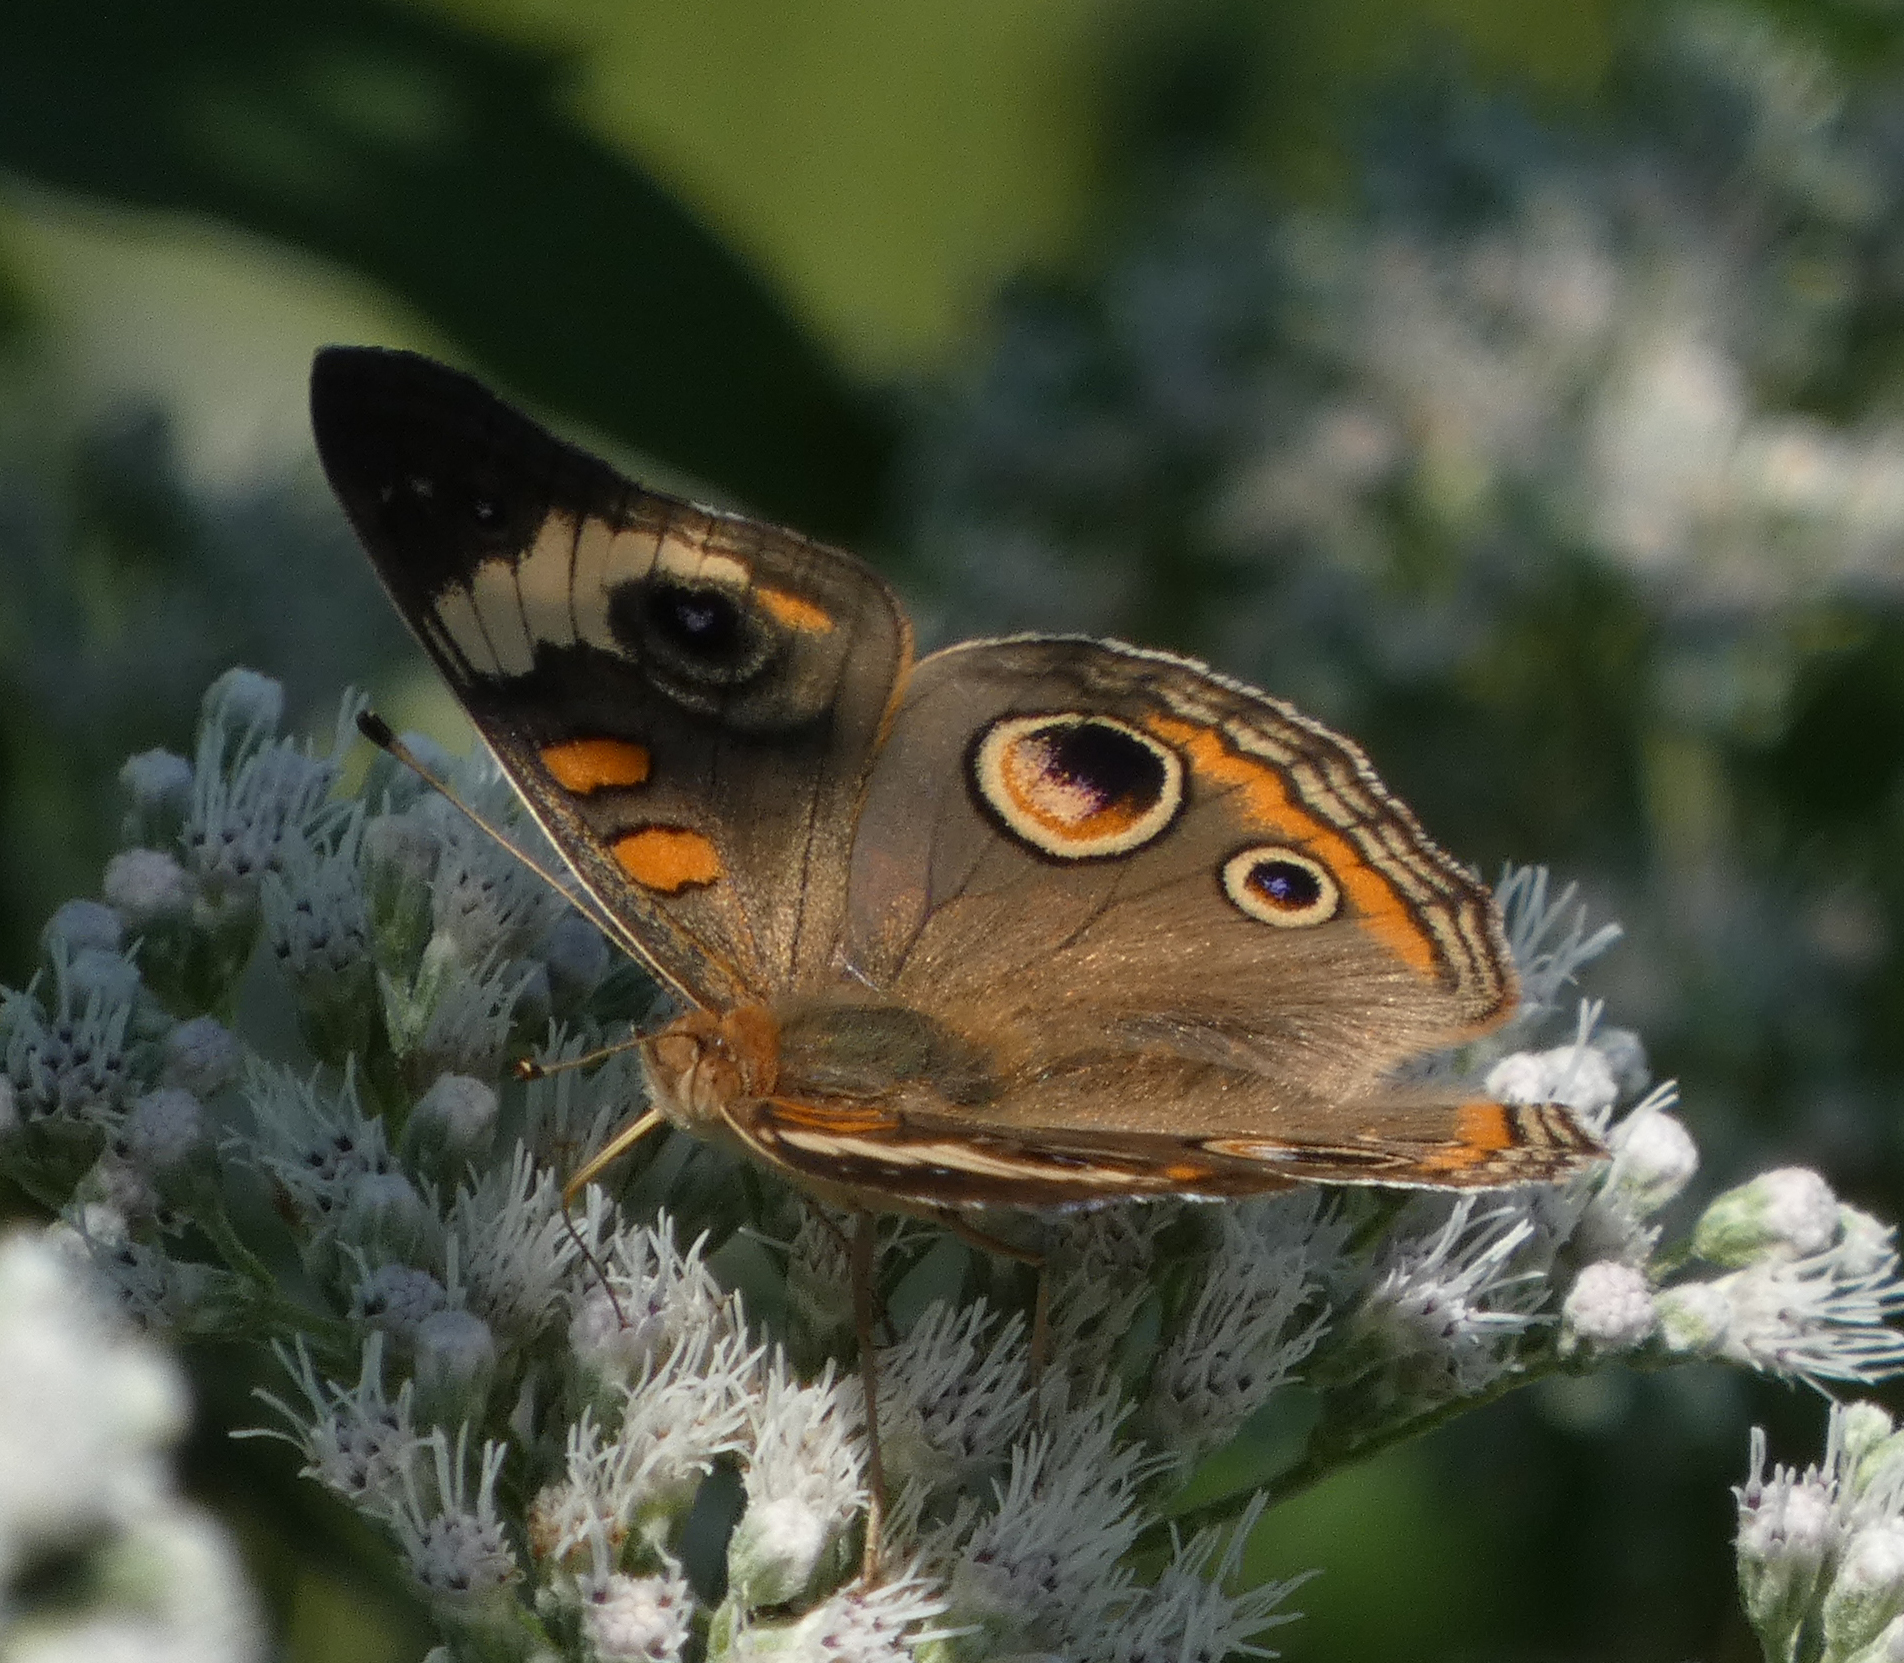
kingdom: Animalia
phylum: Arthropoda
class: Insecta
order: Lepidoptera
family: Nymphalidae
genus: Junonia
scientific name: Junonia coenia
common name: Common buckeye
